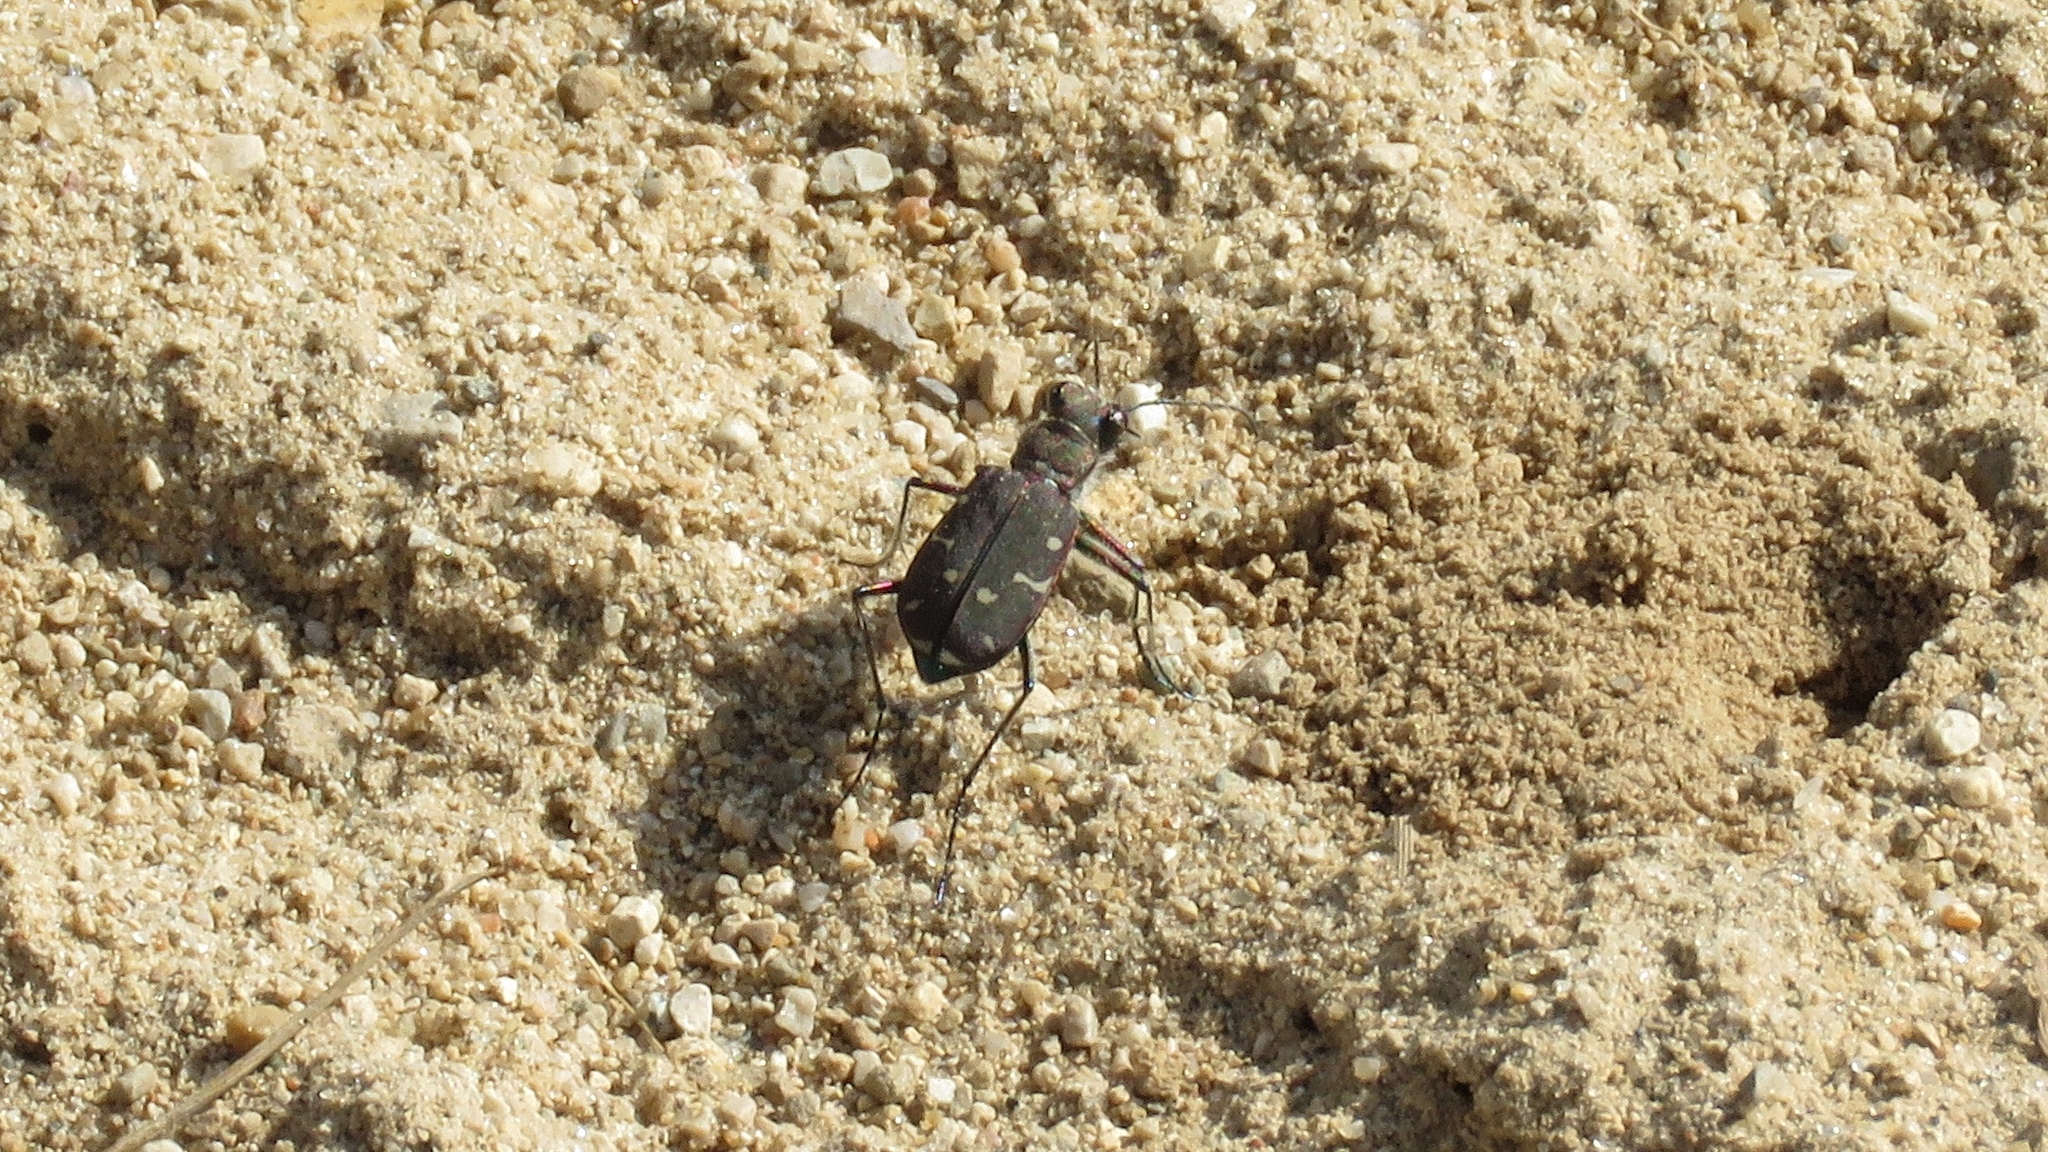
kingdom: Animalia
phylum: Arthropoda
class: Insecta
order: Coleoptera
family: Carabidae
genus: Cicindela
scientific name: Cicindela duodecimguttata
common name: Twelve-spotted tiger beetle
